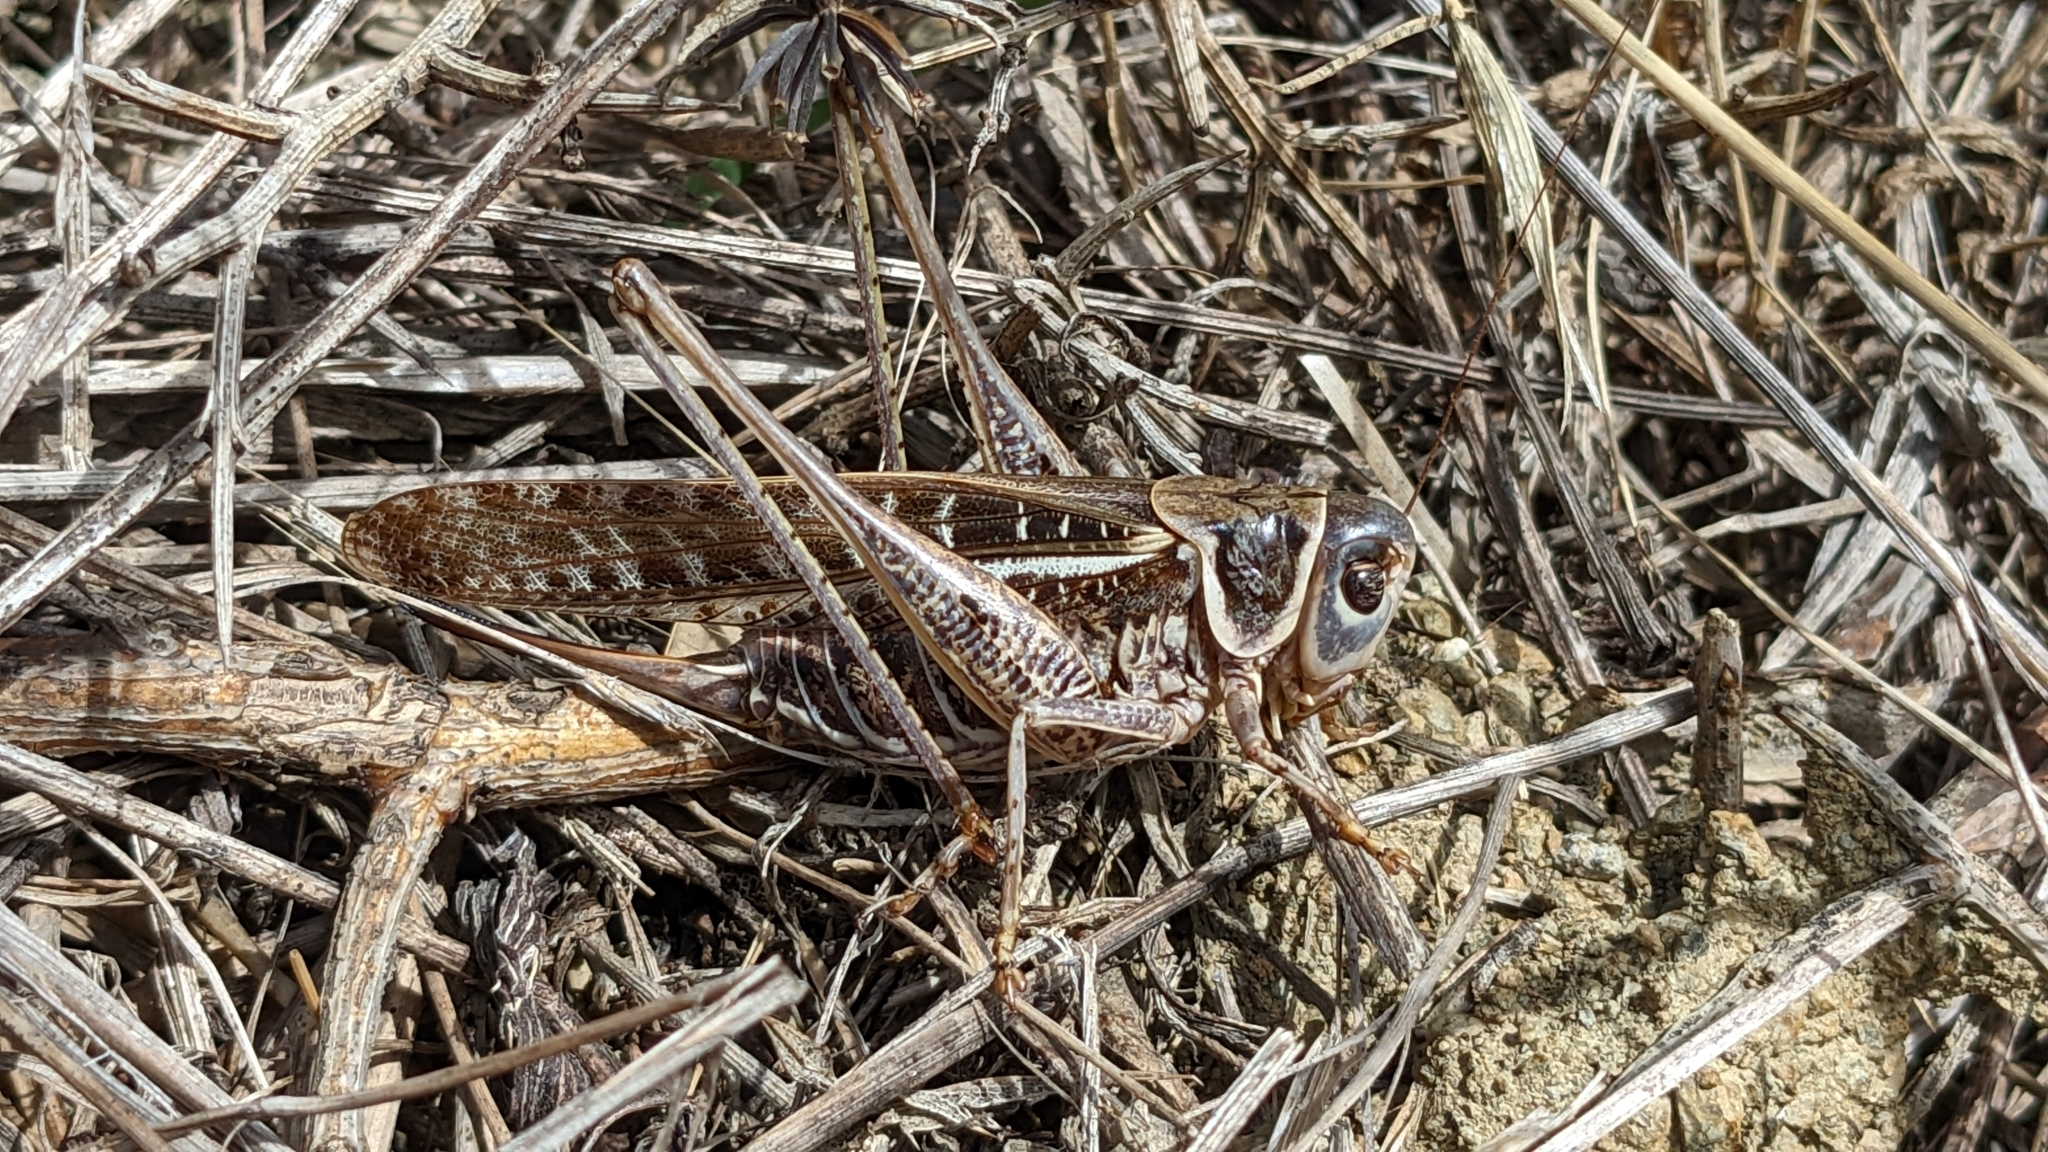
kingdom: Animalia
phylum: Arthropoda
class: Insecta
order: Orthoptera
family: Tettigoniidae
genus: Decticus
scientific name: Decticus albifrons
